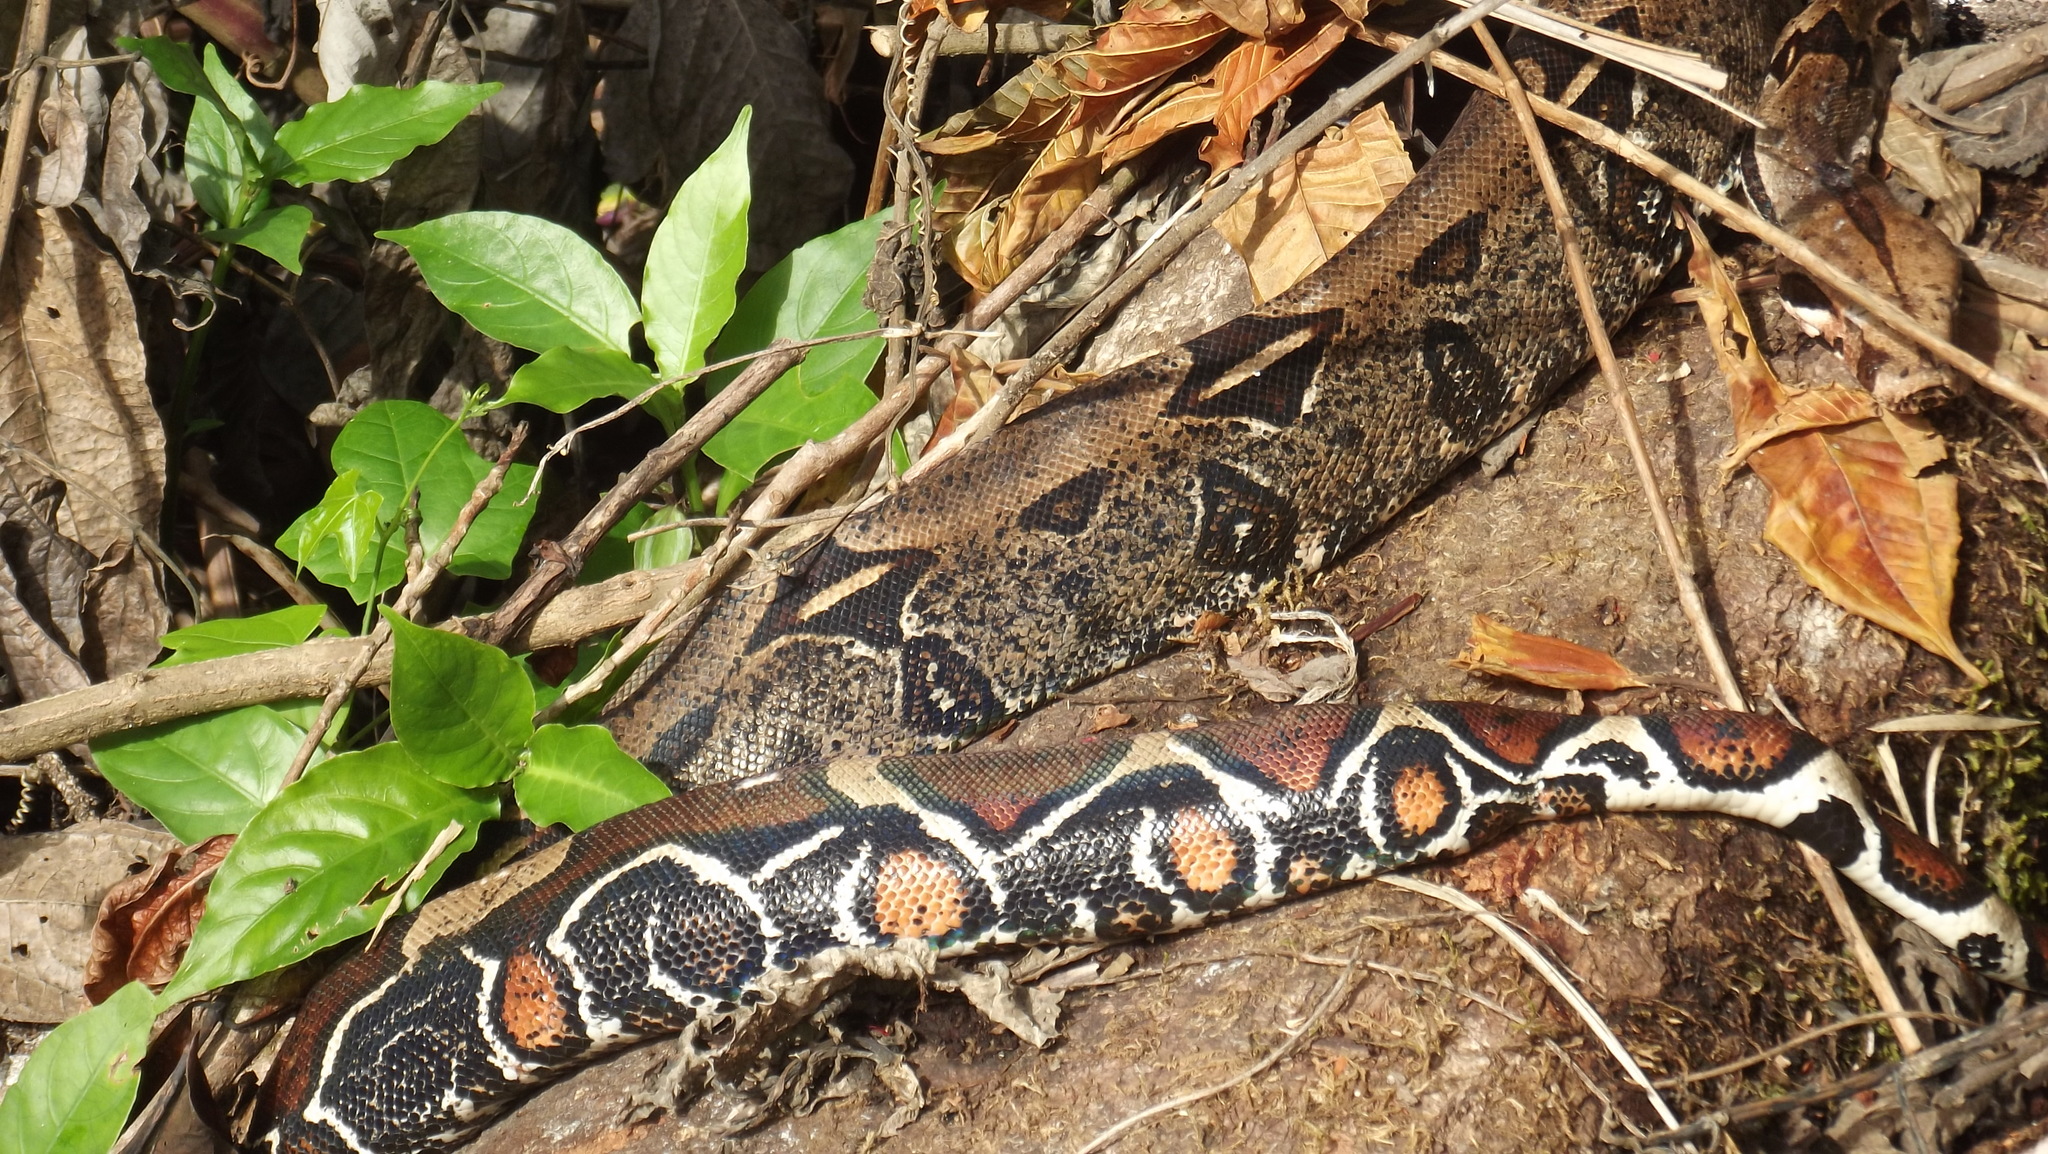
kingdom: Animalia
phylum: Chordata
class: Squamata
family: Boidae
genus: Boa
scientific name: Boa constrictor
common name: Boa constrictor
